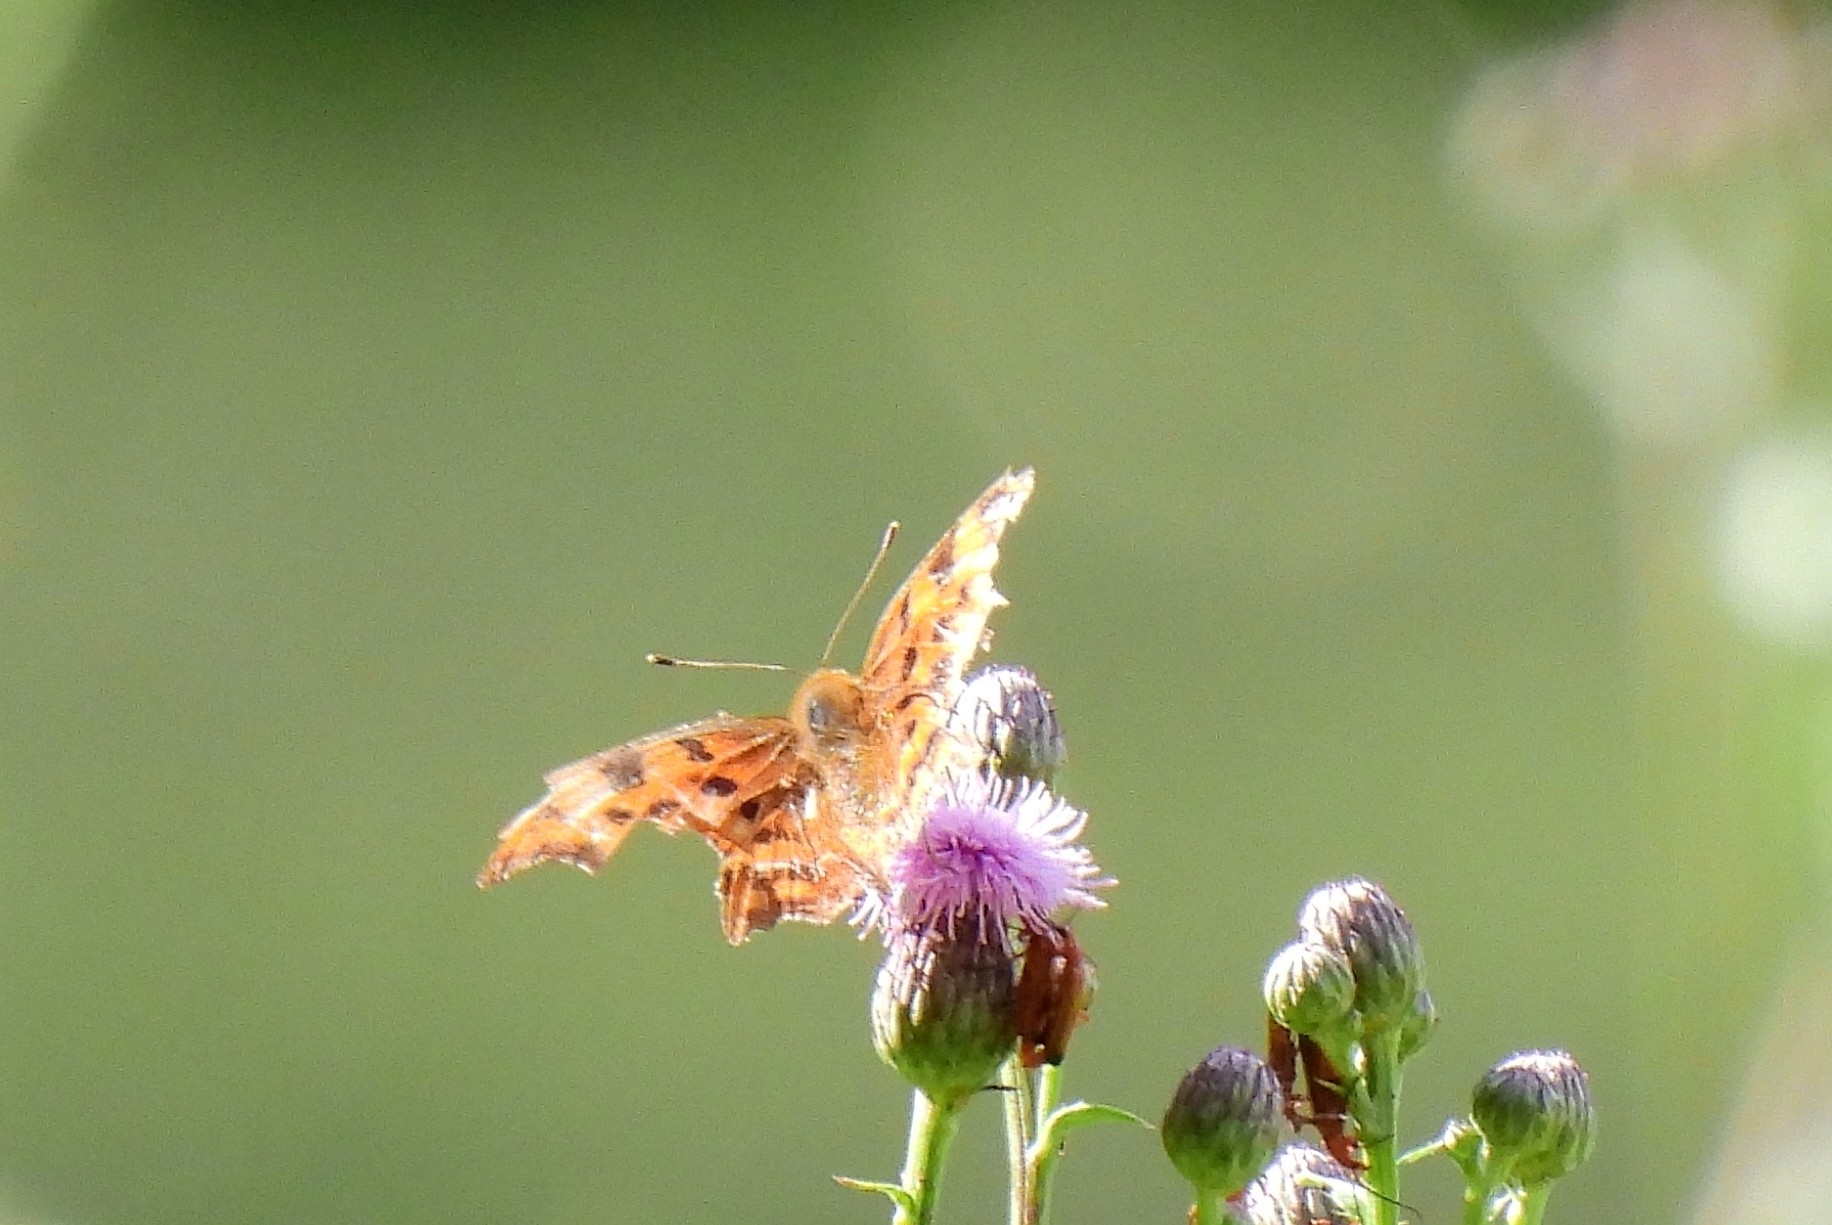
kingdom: Animalia
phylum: Arthropoda
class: Insecta
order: Lepidoptera
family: Nymphalidae
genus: Polygonia
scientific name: Polygonia c-album
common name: Comma
